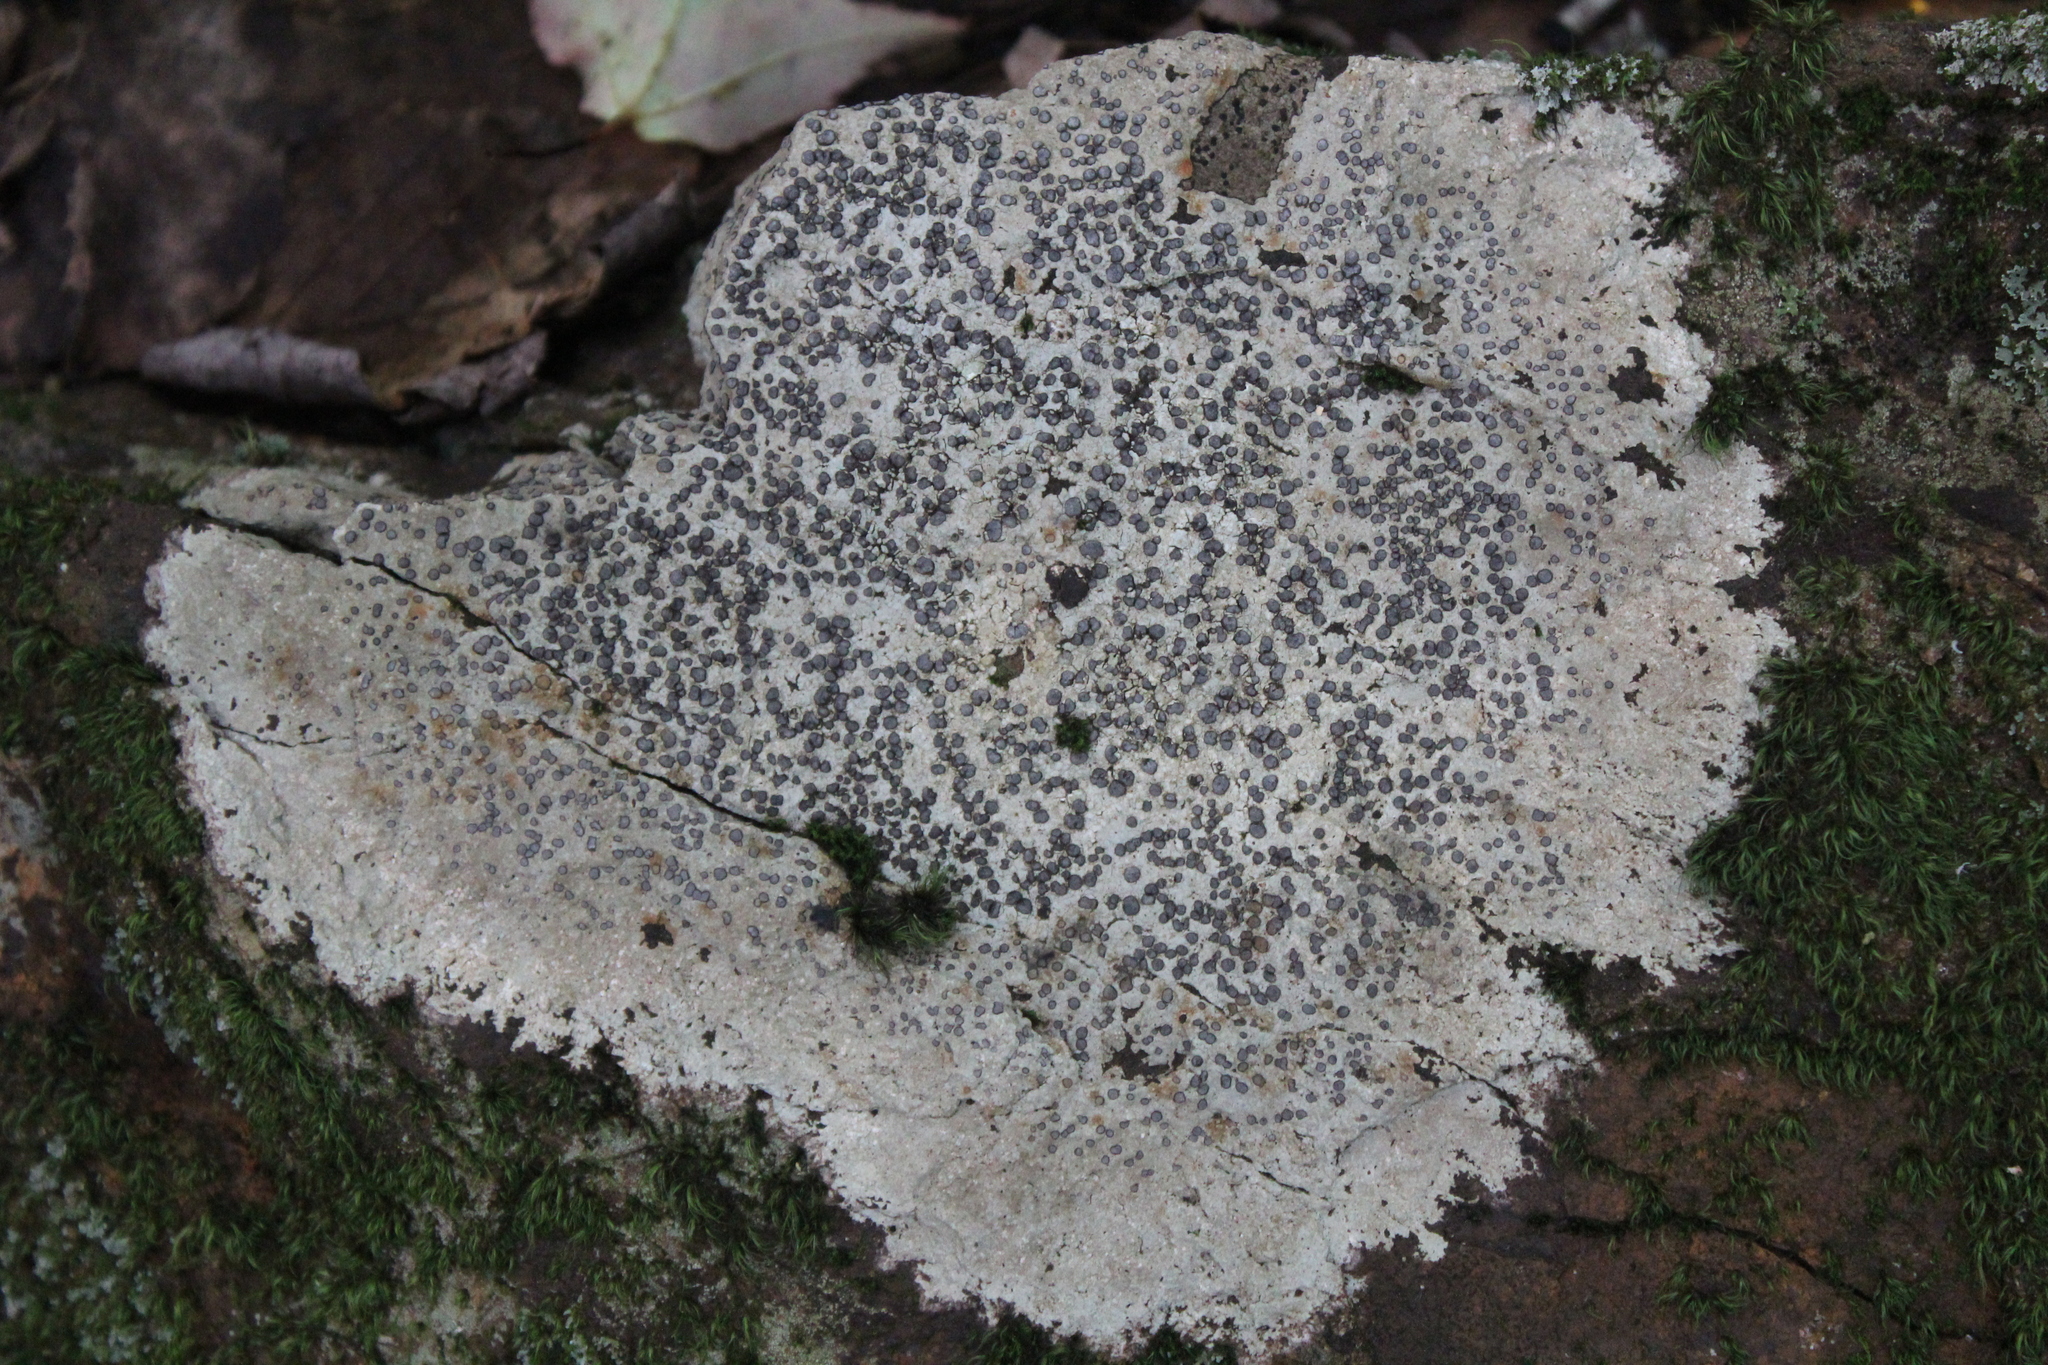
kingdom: Fungi
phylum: Ascomycota
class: Lecanoromycetes
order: Lecideales
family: Lecideaceae
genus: Porpidia
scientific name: Porpidia albocaerulescens
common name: Smokey-eyed boulder lichen
